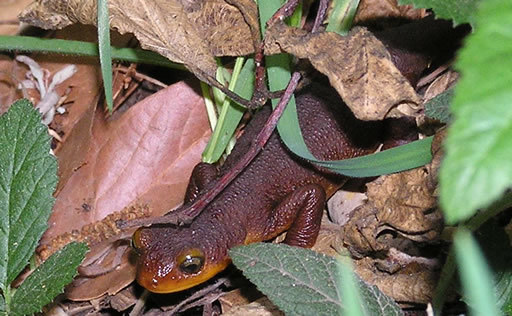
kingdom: Animalia
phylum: Chordata
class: Amphibia
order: Caudata
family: Salamandridae
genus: Taricha
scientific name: Taricha torosa
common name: California newt
